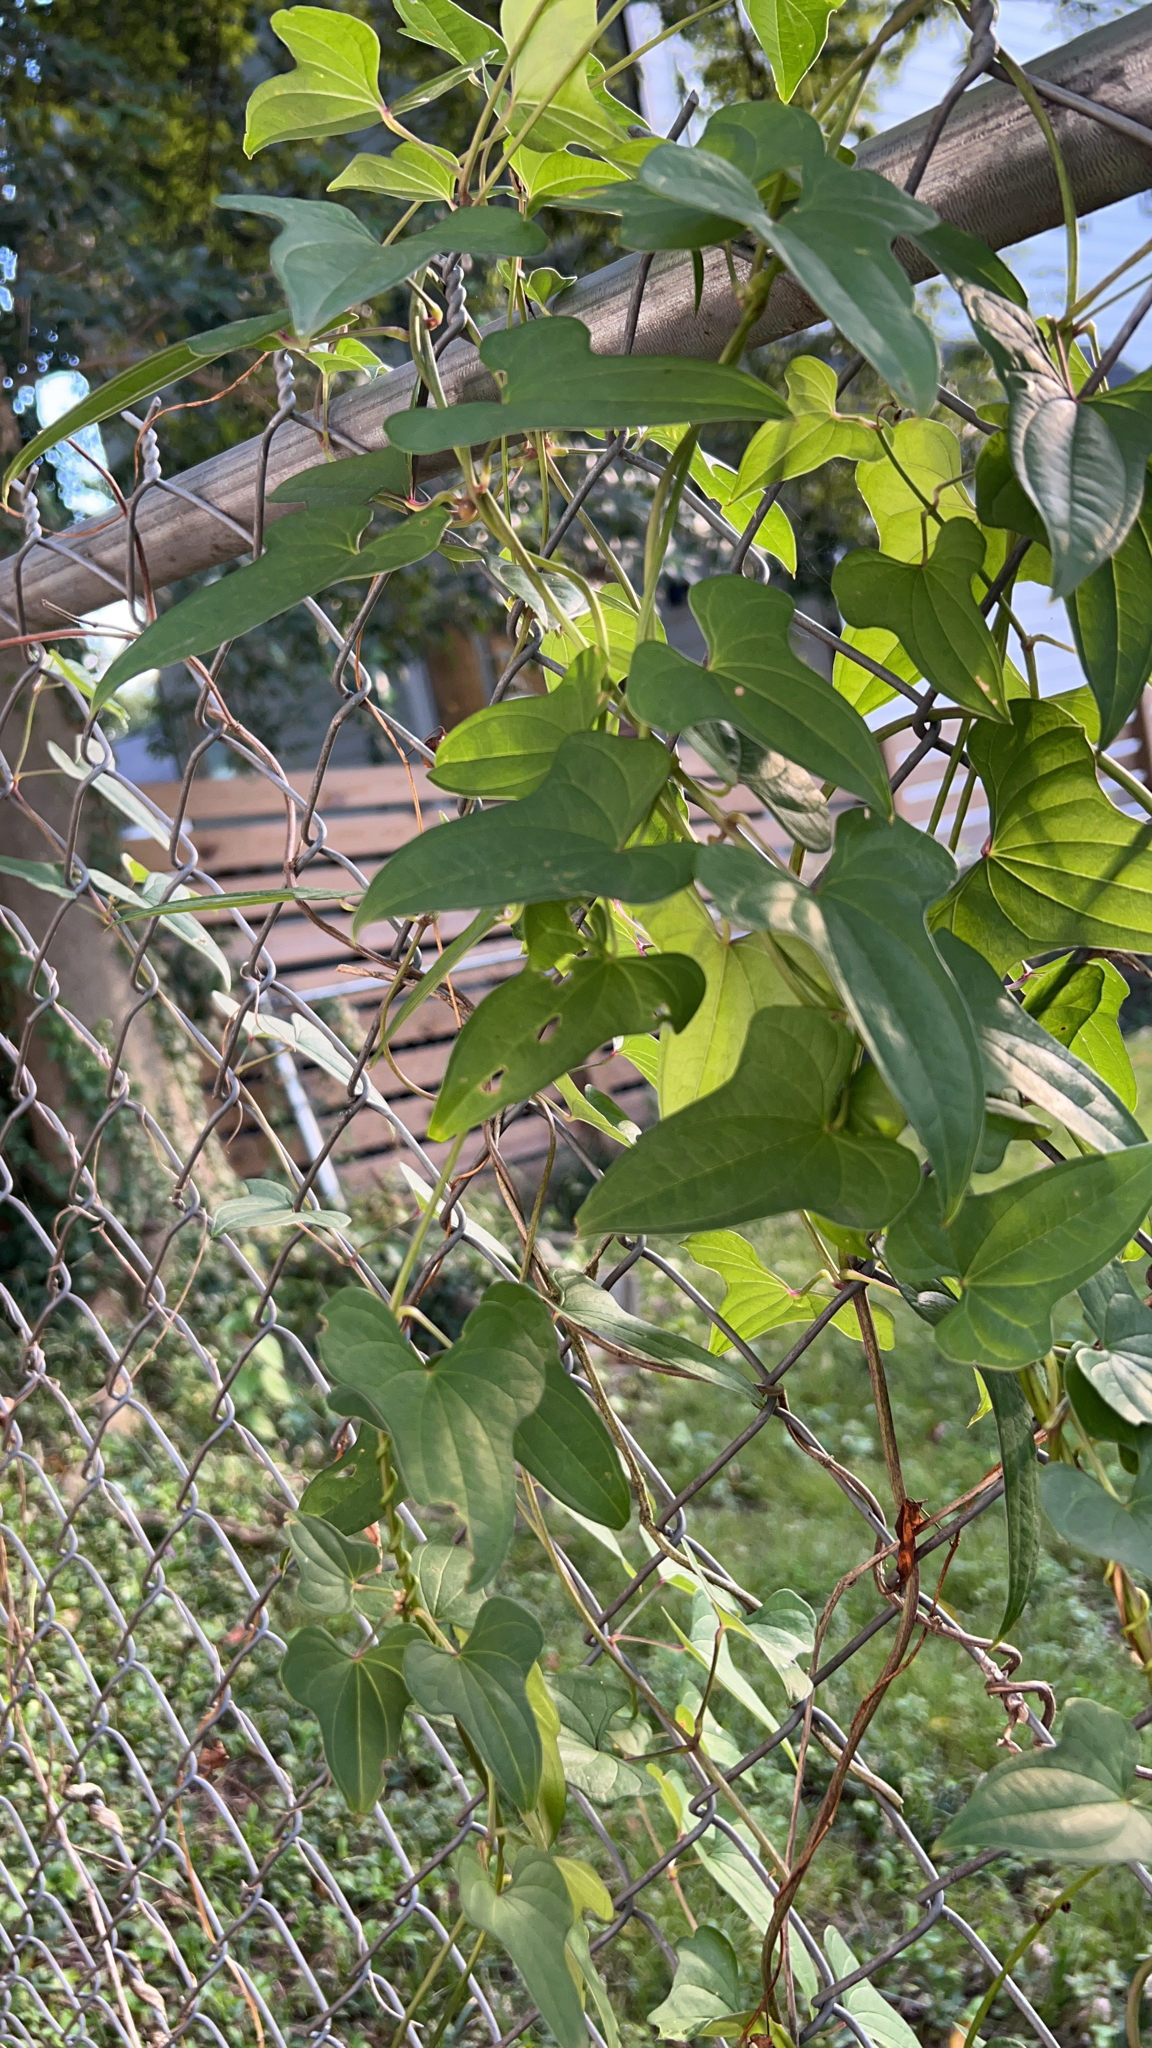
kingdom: Plantae
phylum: Tracheophyta
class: Liliopsida
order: Dioscoreales
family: Dioscoreaceae
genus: Dioscorea
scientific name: Dioscorea polystachya
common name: Chinese yam
